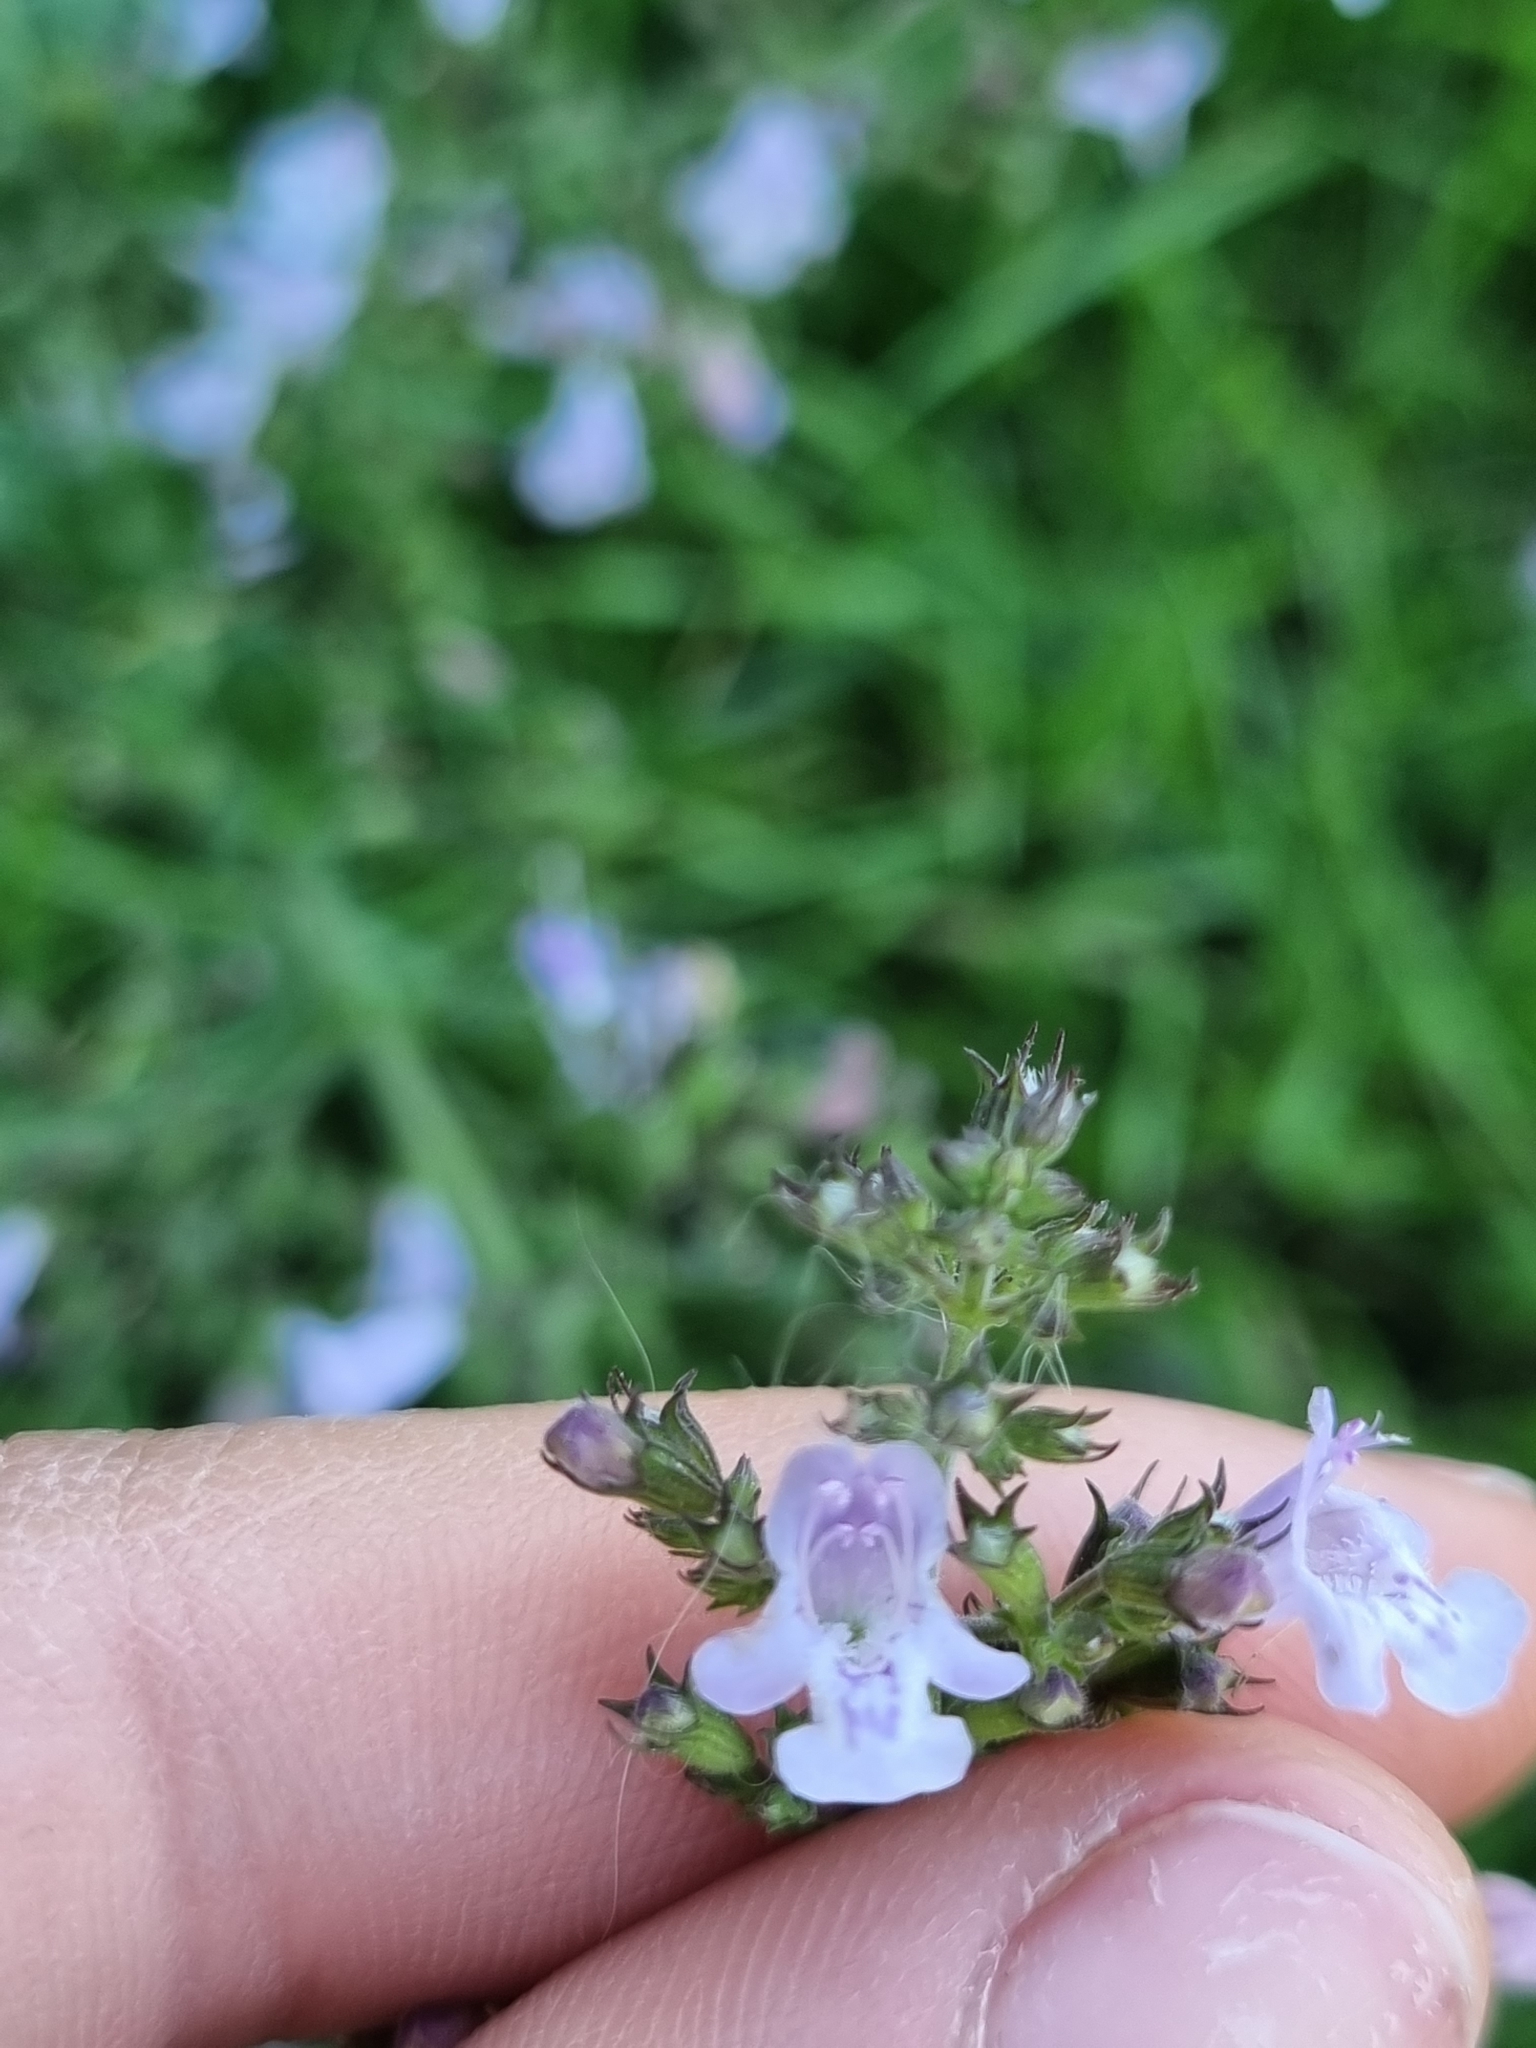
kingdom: Plantae
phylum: Tracheophyta
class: Magnoliopsida
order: Lamiales
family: Lamiaceae
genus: Clinopodium
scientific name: Clinopodium nepeta
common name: Lesser calamint
